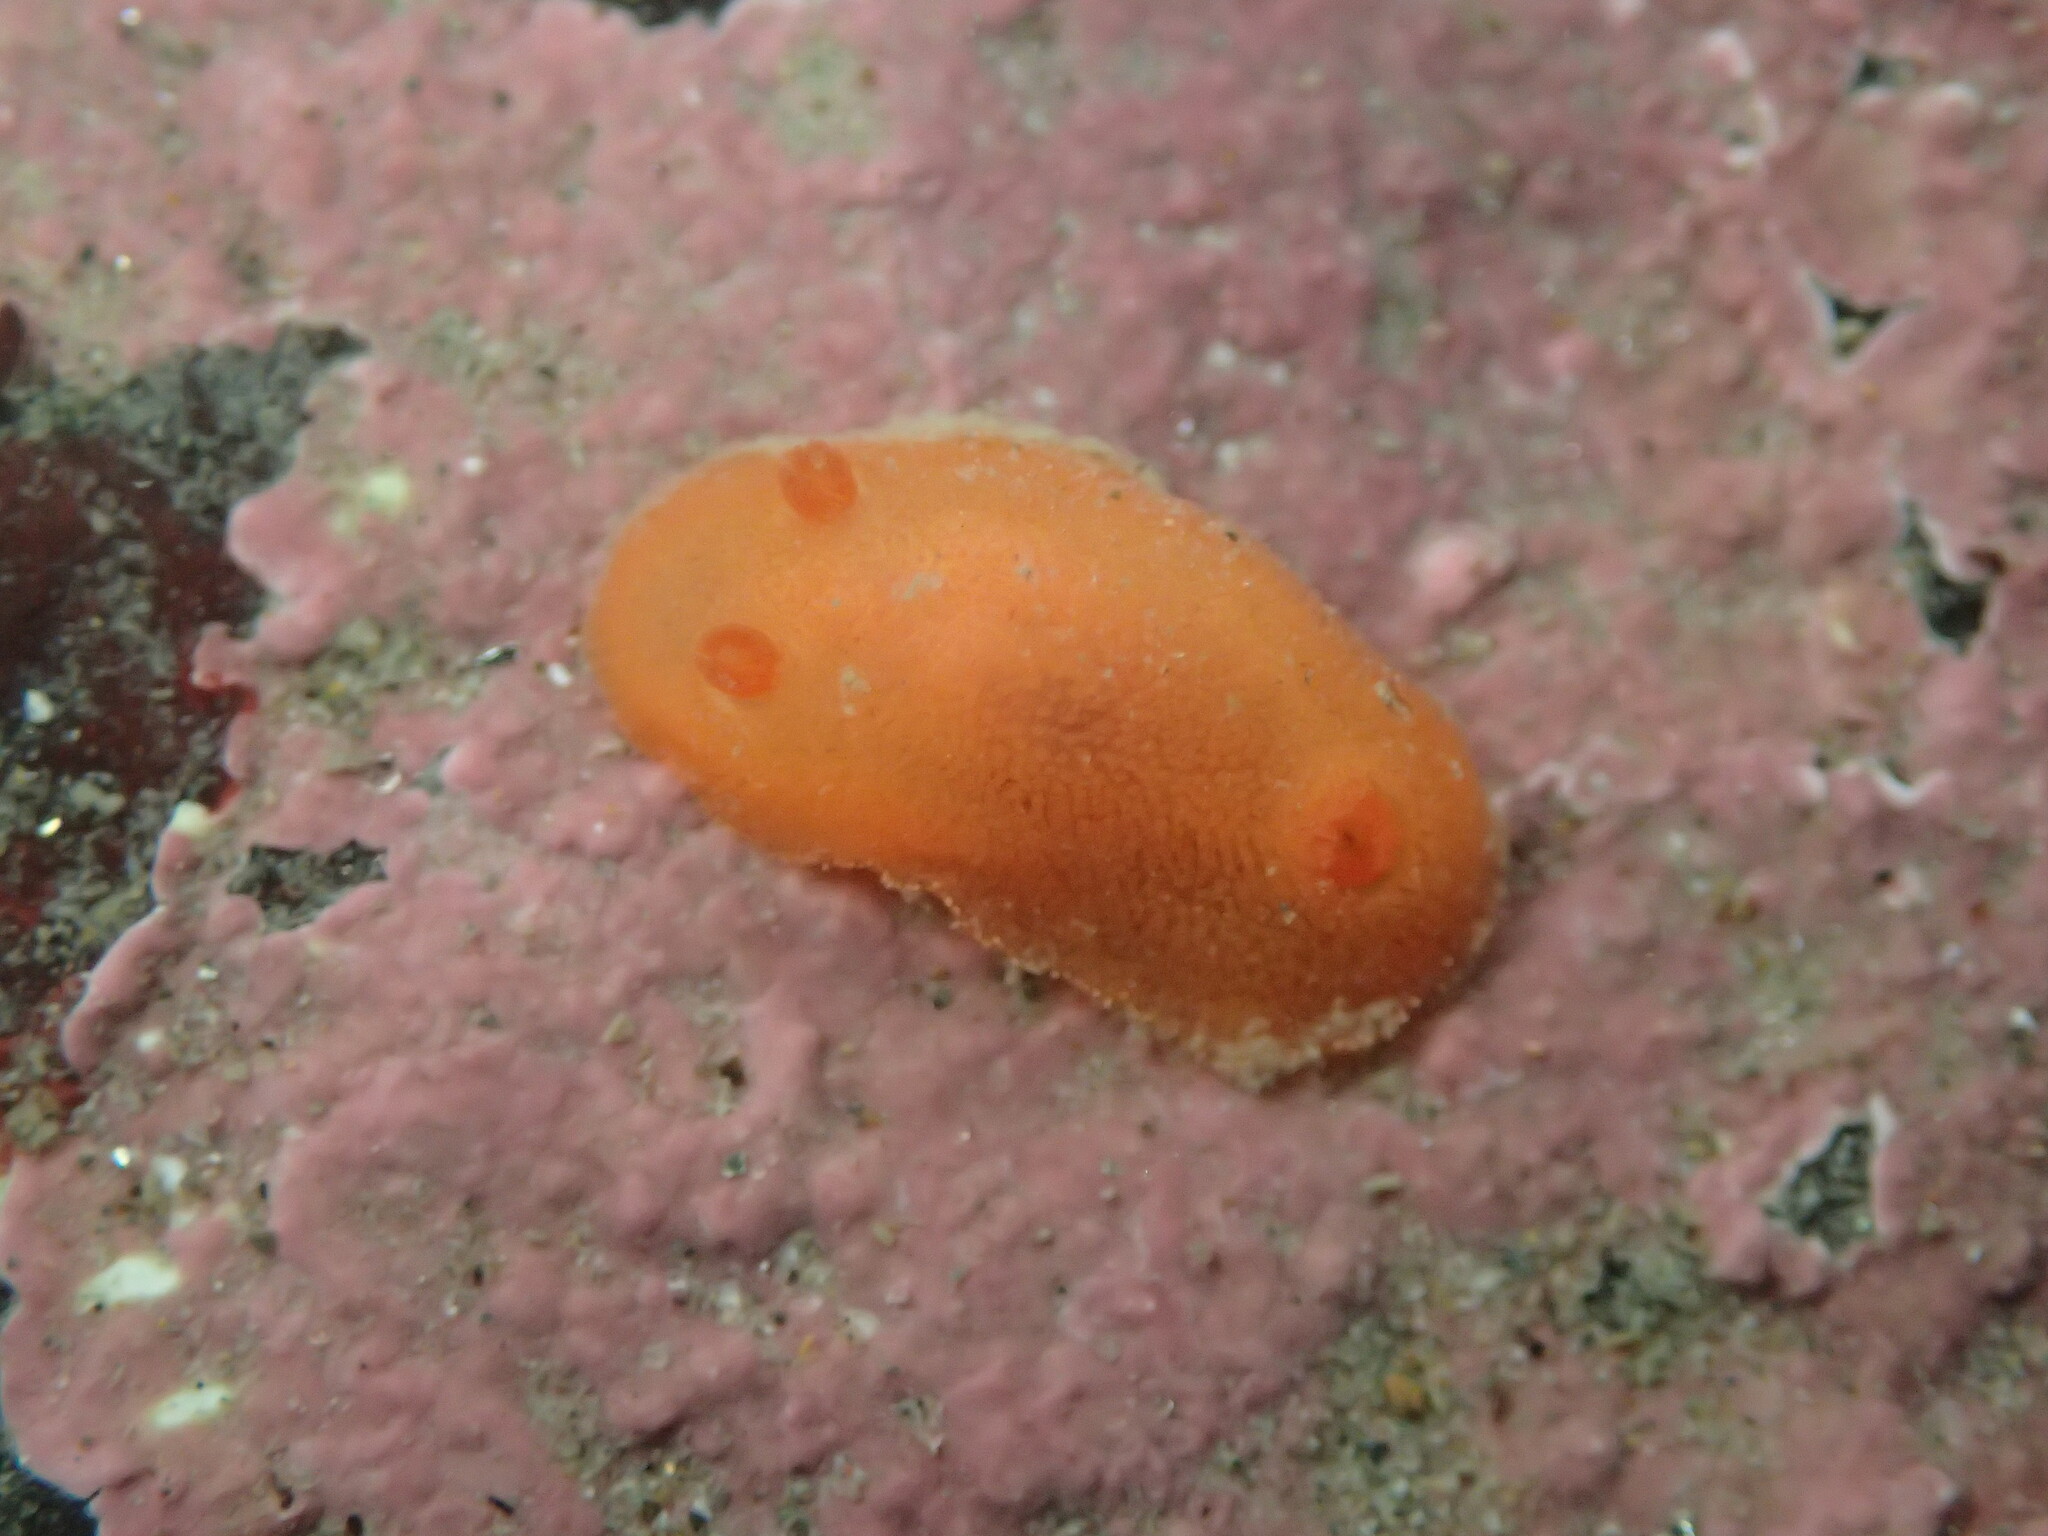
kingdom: Animalia
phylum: Mollusca
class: Gastropoda
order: Nudibranchia
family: Discodorididae
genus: Rostanga
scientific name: Rostanga pulchra
